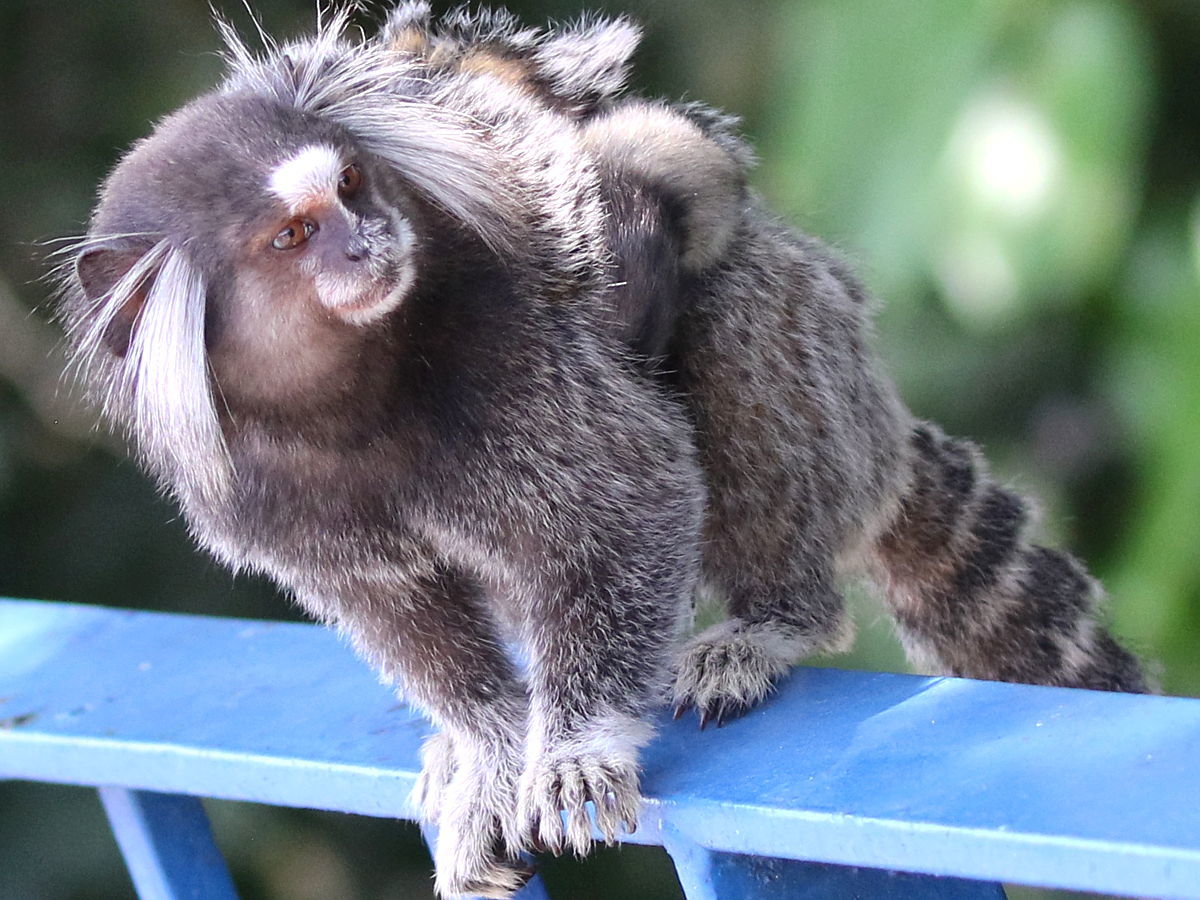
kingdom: Animalia
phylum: Chordata
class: Mammalia
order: Primates
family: Callitrichidae
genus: Callithrix
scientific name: Callithrix jacchus
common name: Common marmoset
